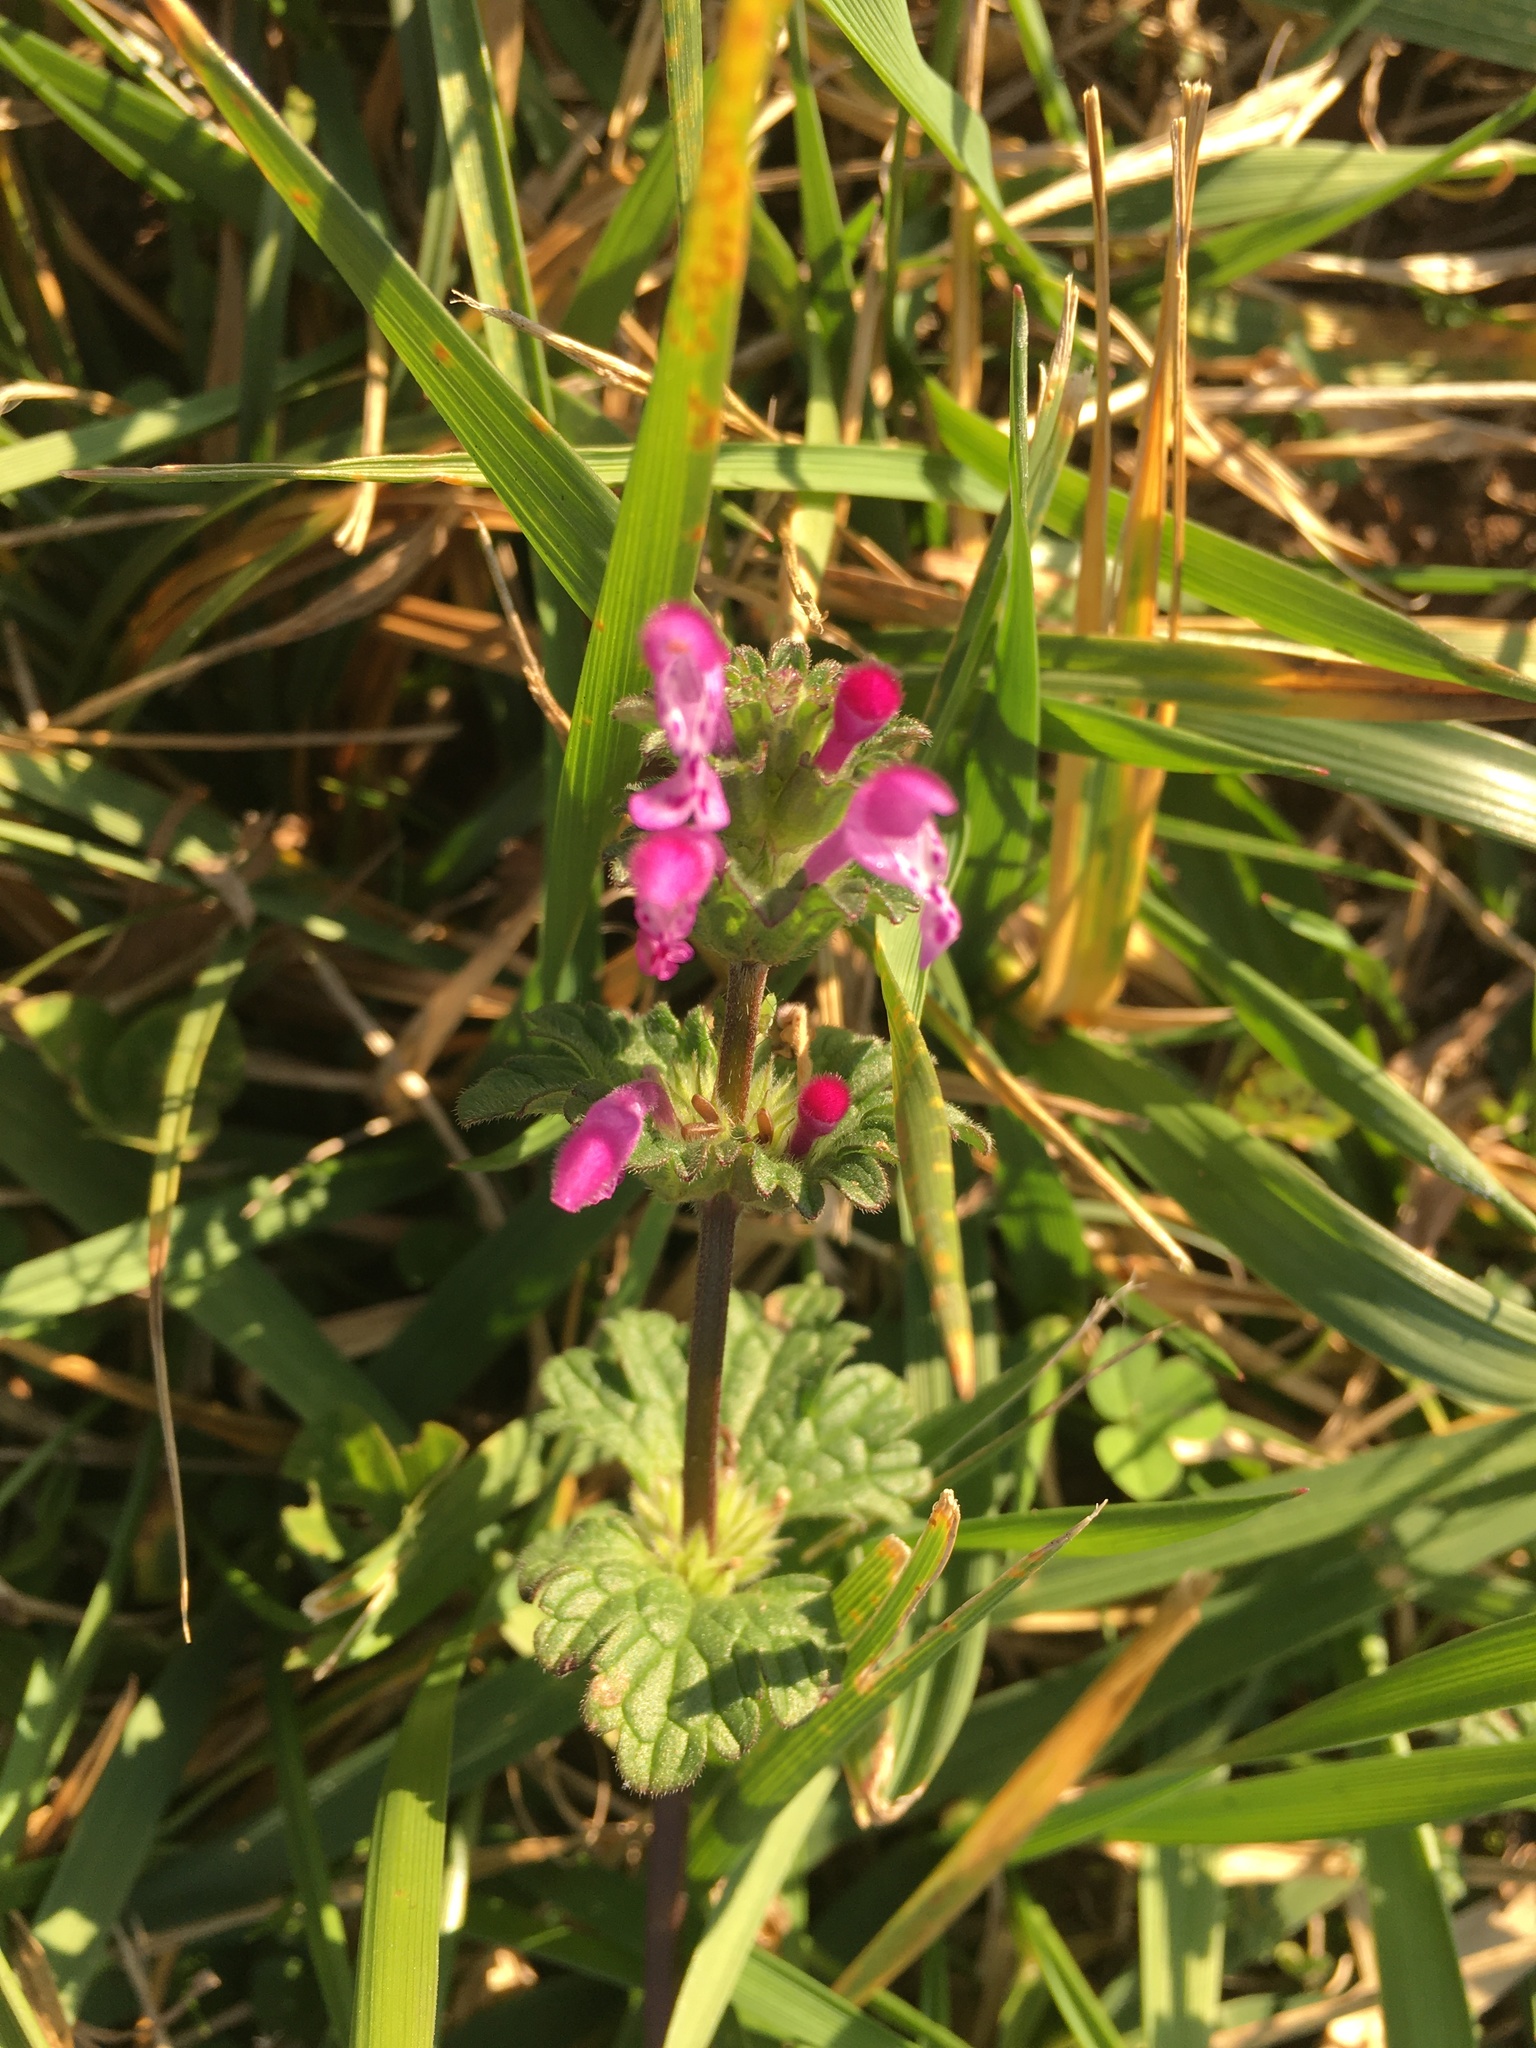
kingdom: Plantae
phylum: Tracheophyta
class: Magnoliopsida
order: Lamiales
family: Lamiaceae
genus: Lamium
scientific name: Lamium amplexicaule
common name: Henbit dead-nettle
